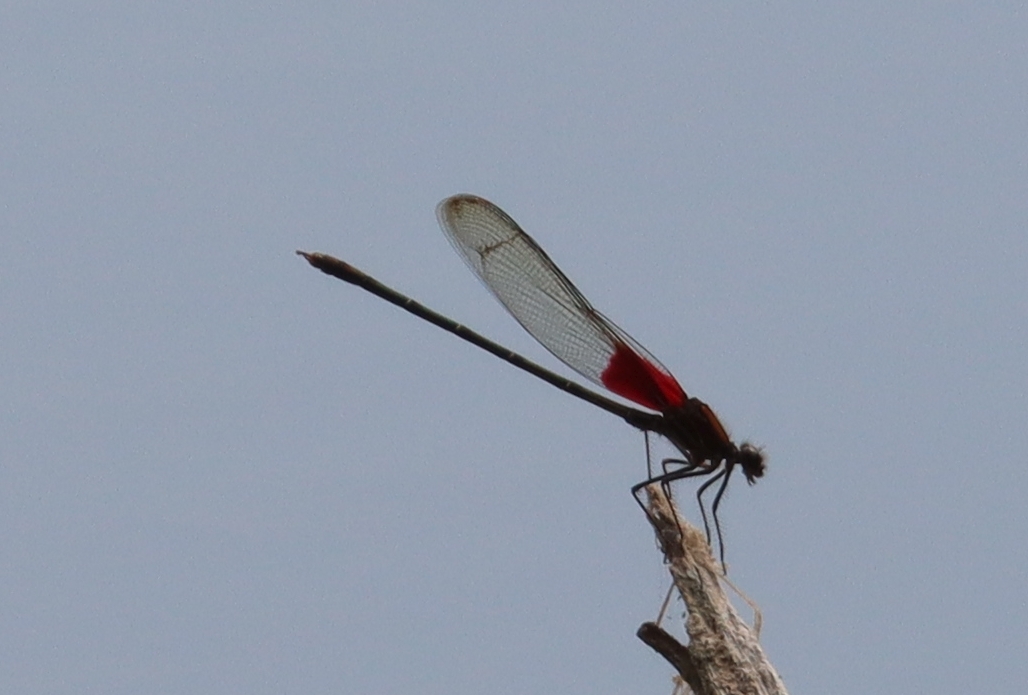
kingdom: Animalia
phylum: Arthropoda
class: Insecta
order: Odonata
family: Calopterygidae
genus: Hetaerina
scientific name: Hetaerina americana
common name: American rubyspot
